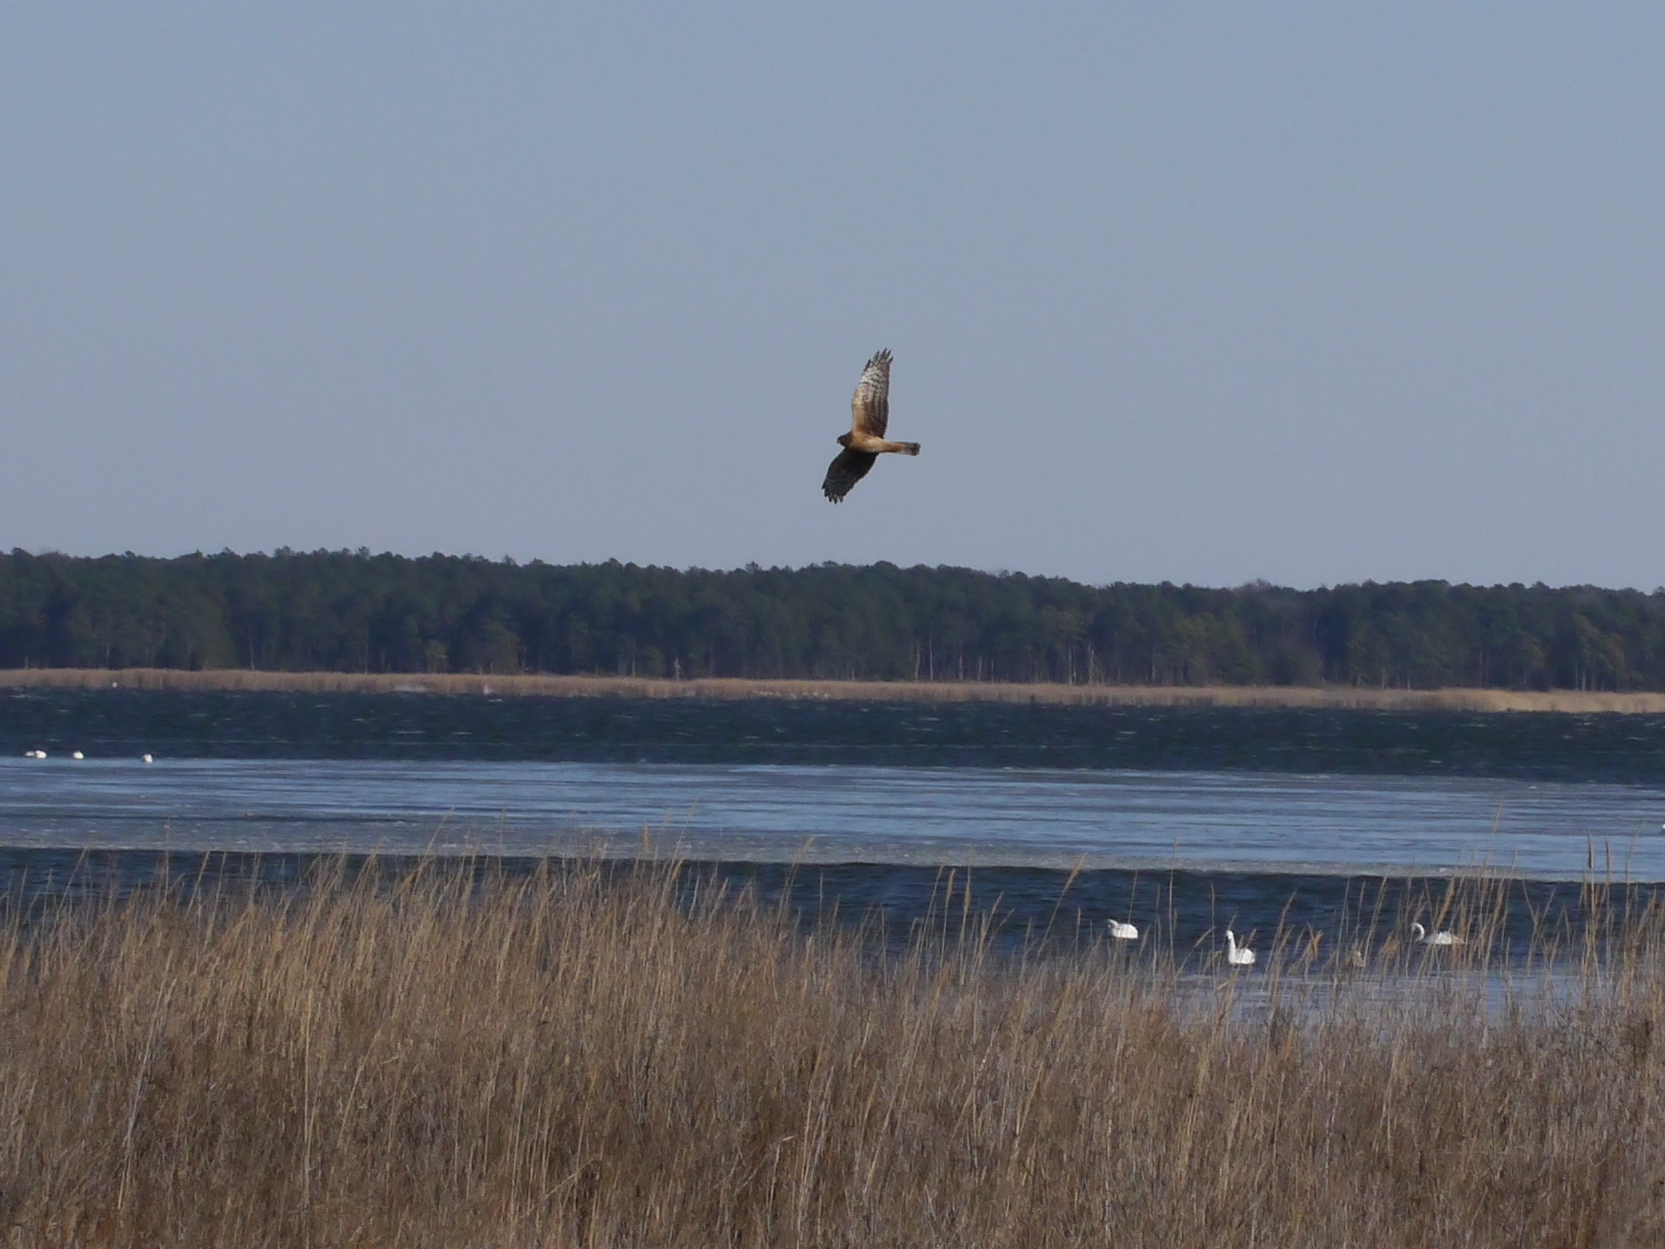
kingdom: Animalia
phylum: Chordata
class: Aves
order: Accipitriformes
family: Accipitridae
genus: Circus
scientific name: Circus cyaneus
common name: Hen harrier
